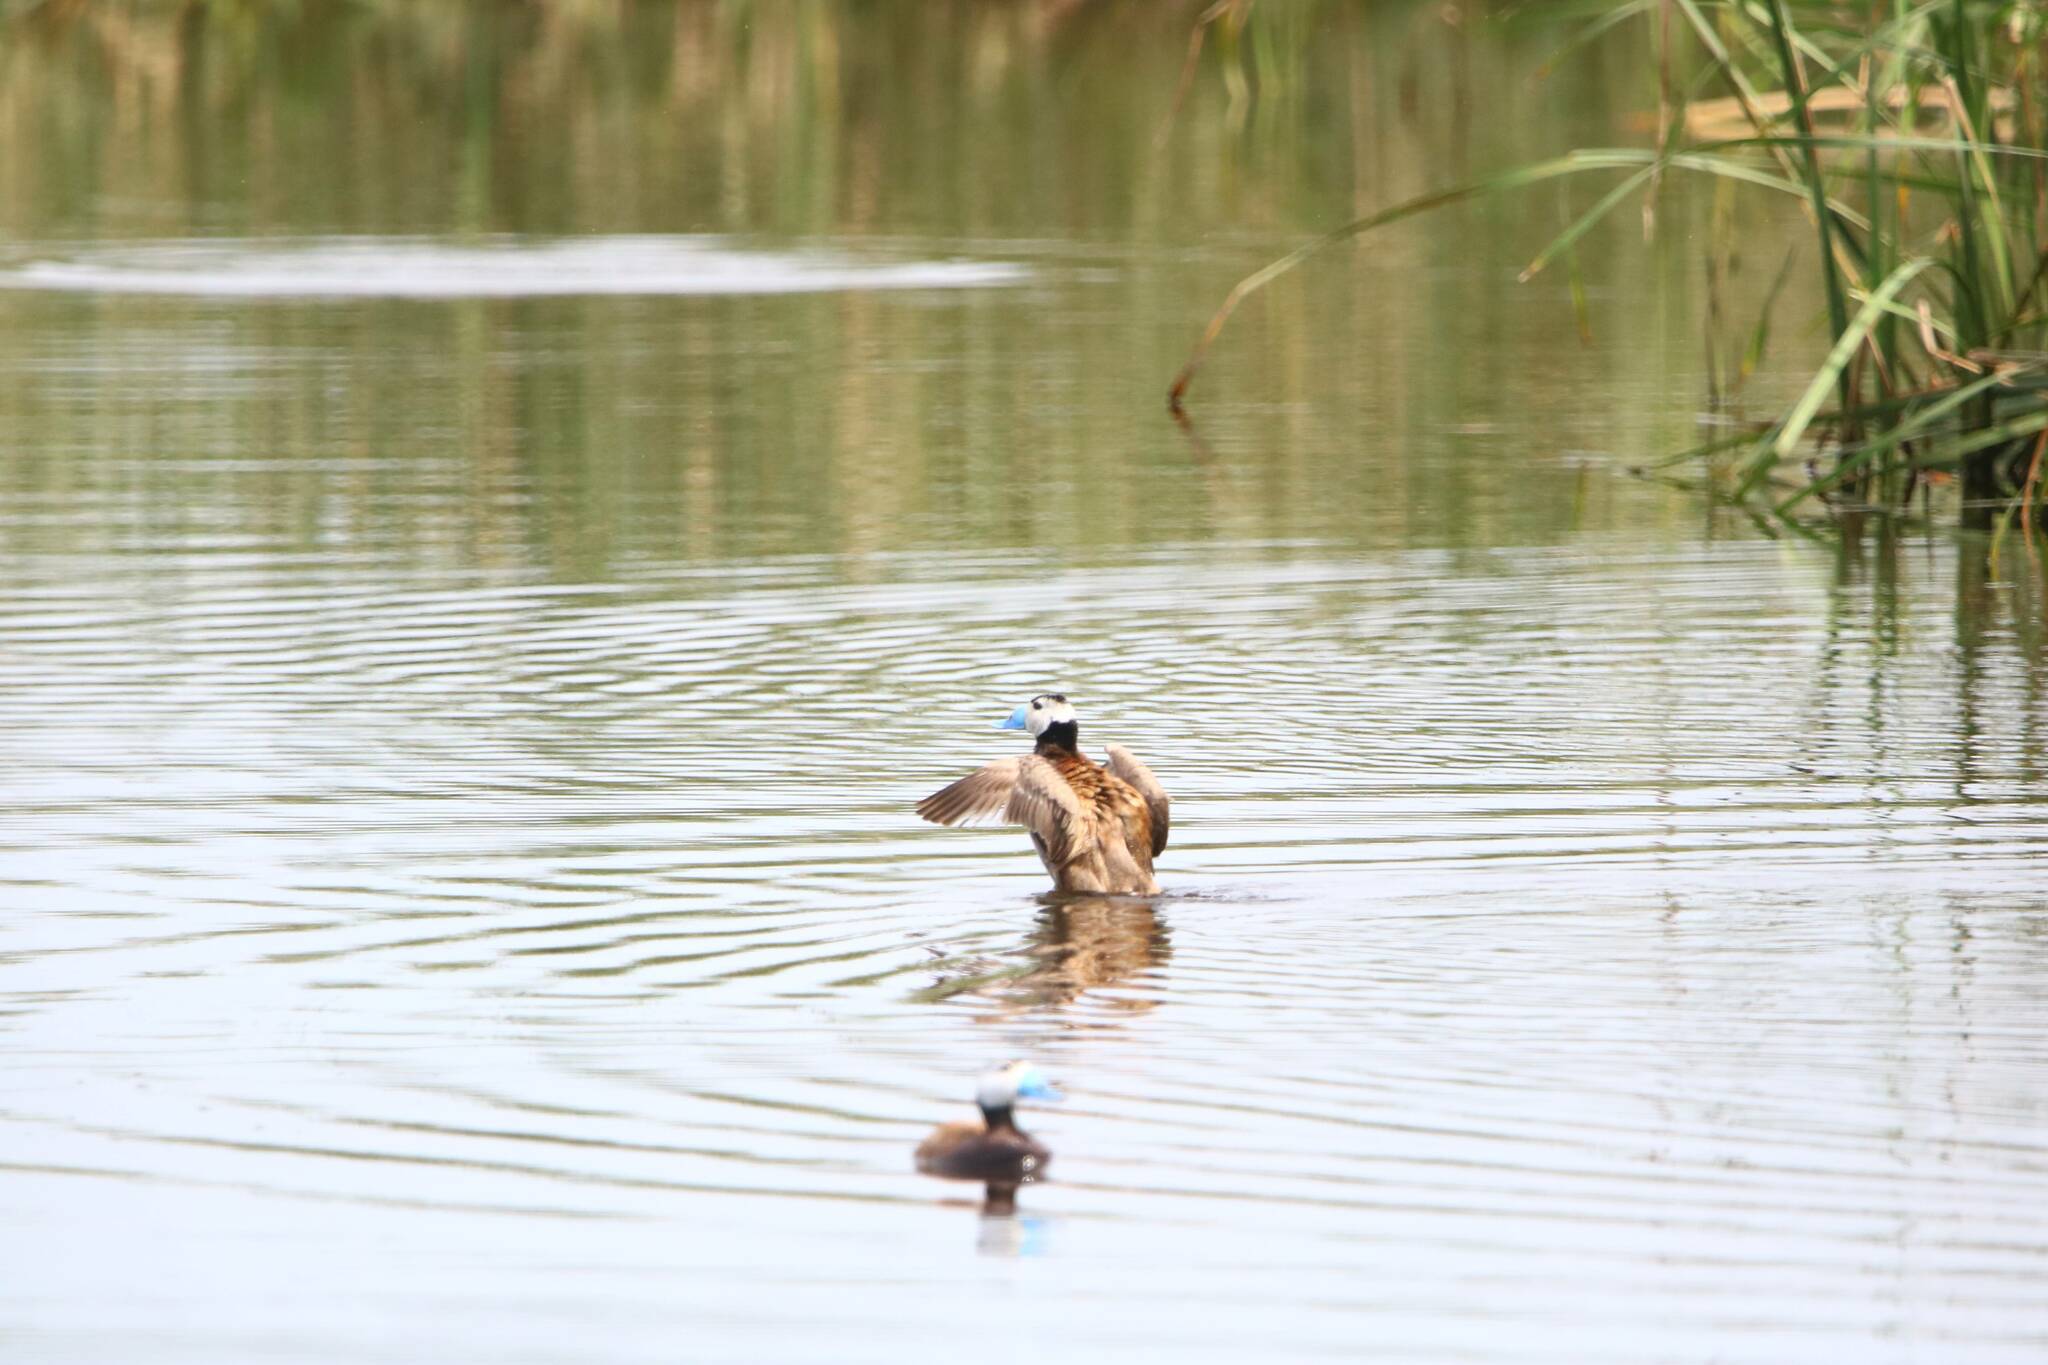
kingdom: Animalia
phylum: Chordata
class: Aves
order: Anseriformes
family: Anatidae
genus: Oxyura
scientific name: Oxyura leucocephala
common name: White-headed duck
